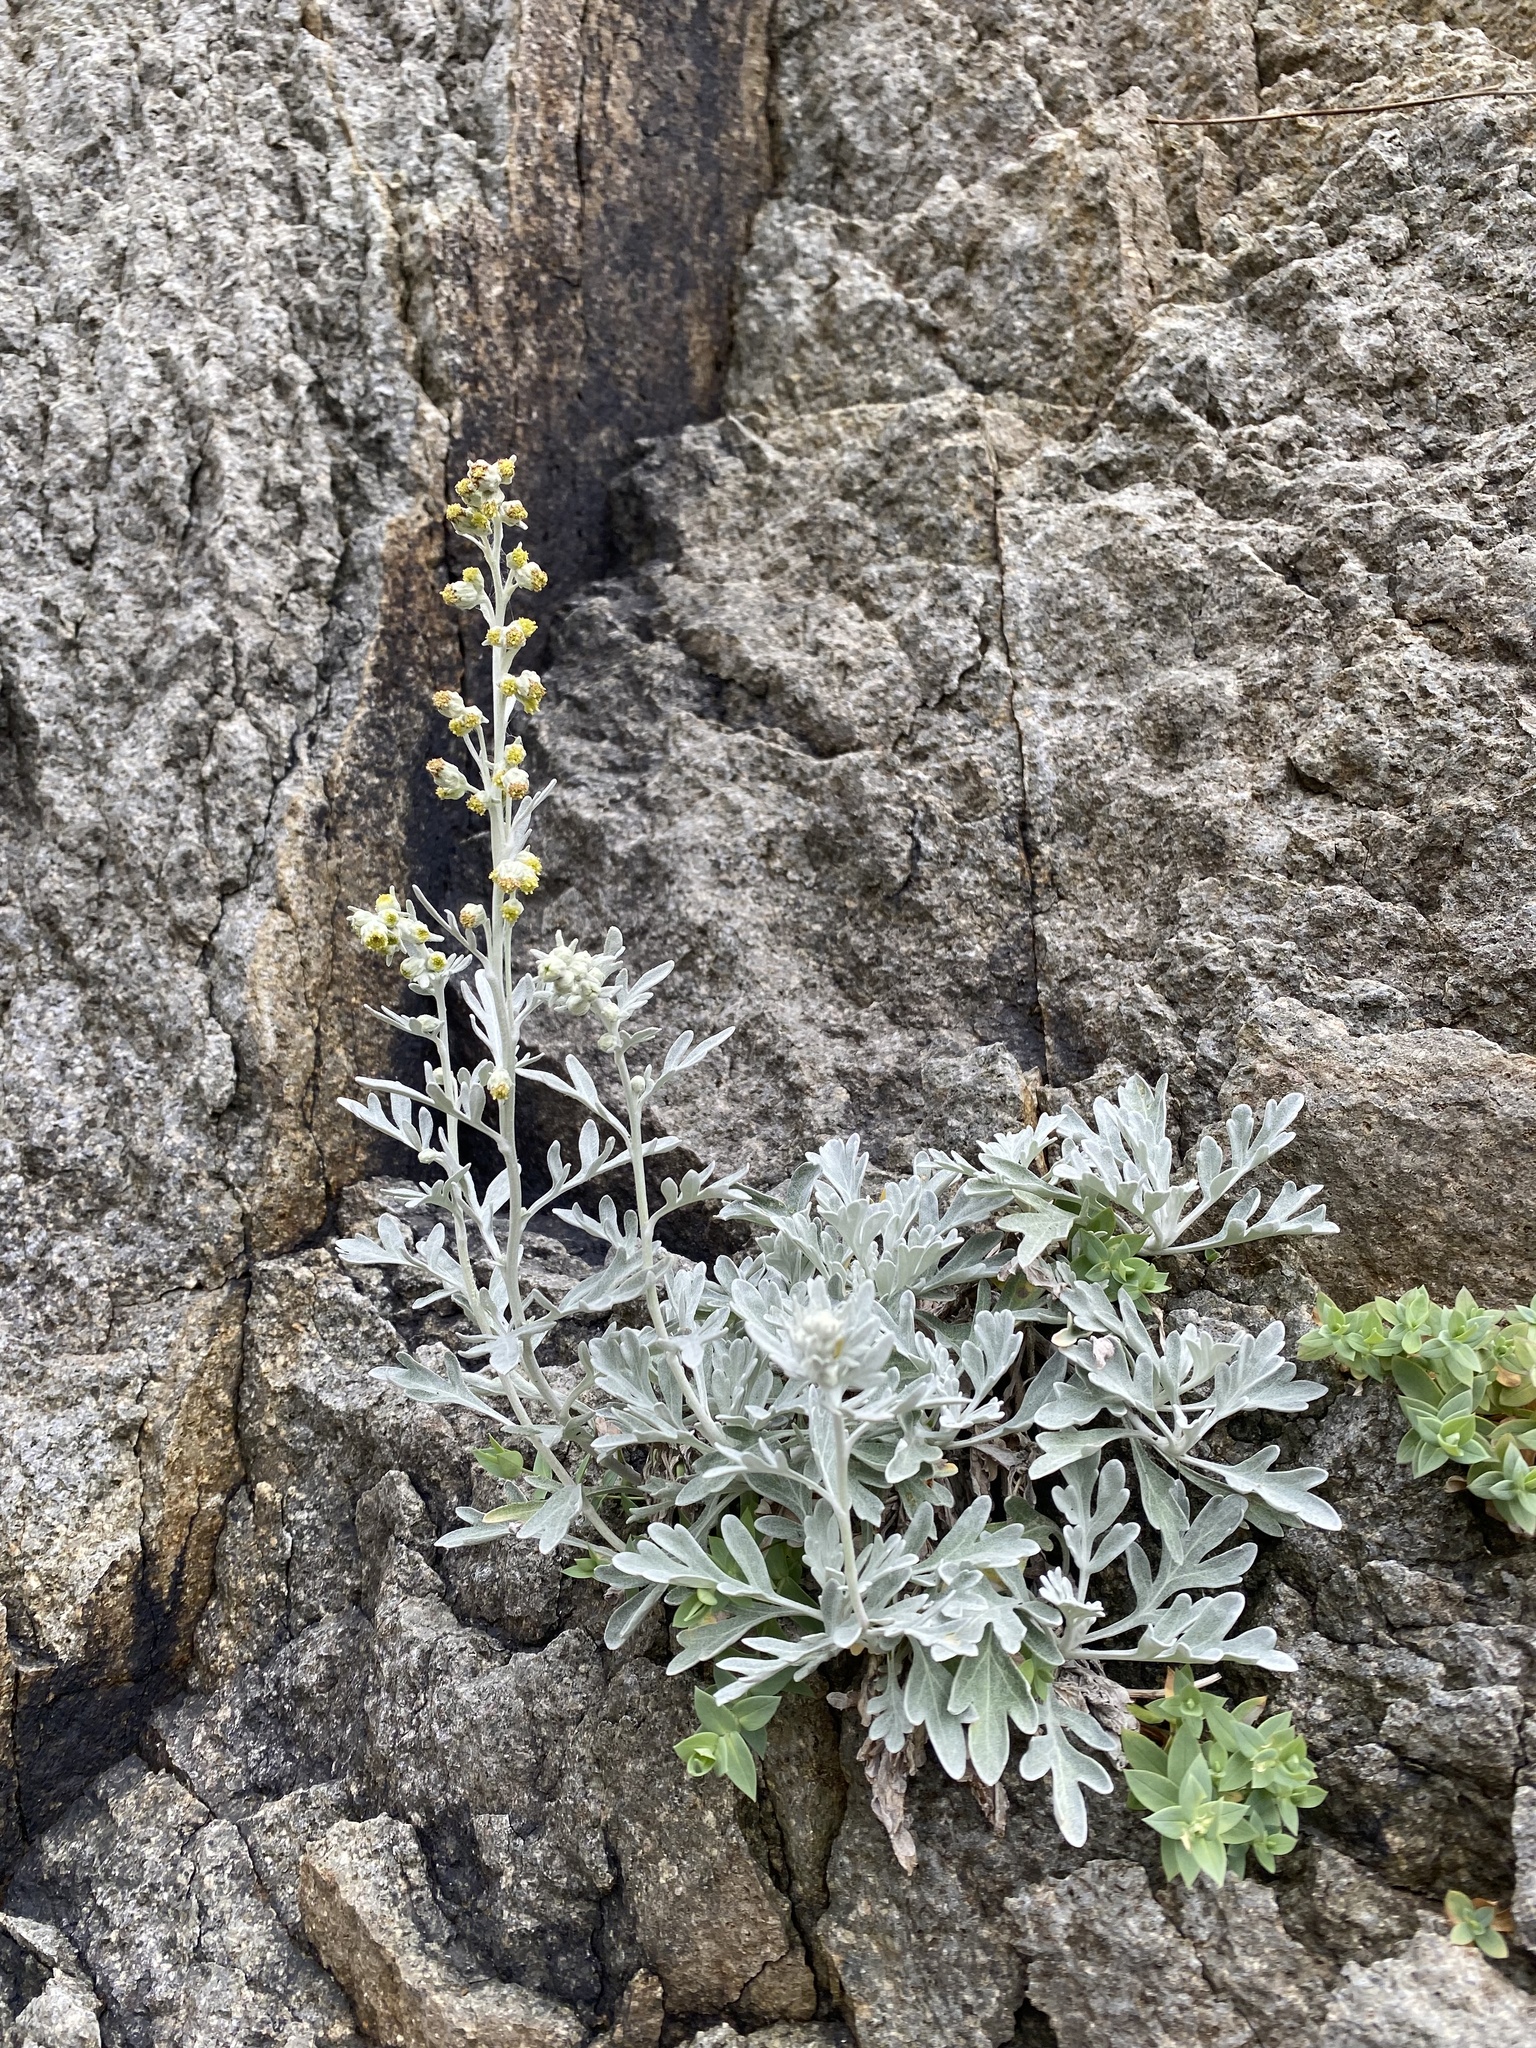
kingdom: Plantae
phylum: Tracheophyta
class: Magnoliopsida
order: Asterales
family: Asteraceae
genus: Artemisia
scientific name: Artemisia stelleriana
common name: Beach wormwood
